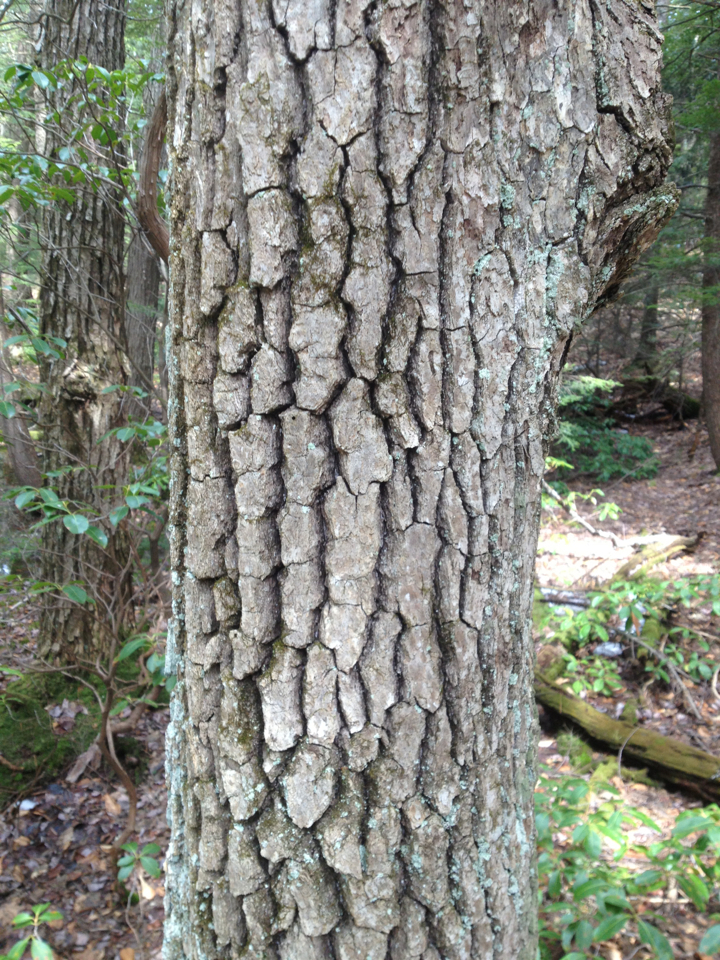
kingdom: Plantae
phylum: Tracheophyta
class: Magnoliopsida
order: Cornales
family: Nyssaceae
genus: Nyssa
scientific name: Nyssa sylvatica
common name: Black tupelo
